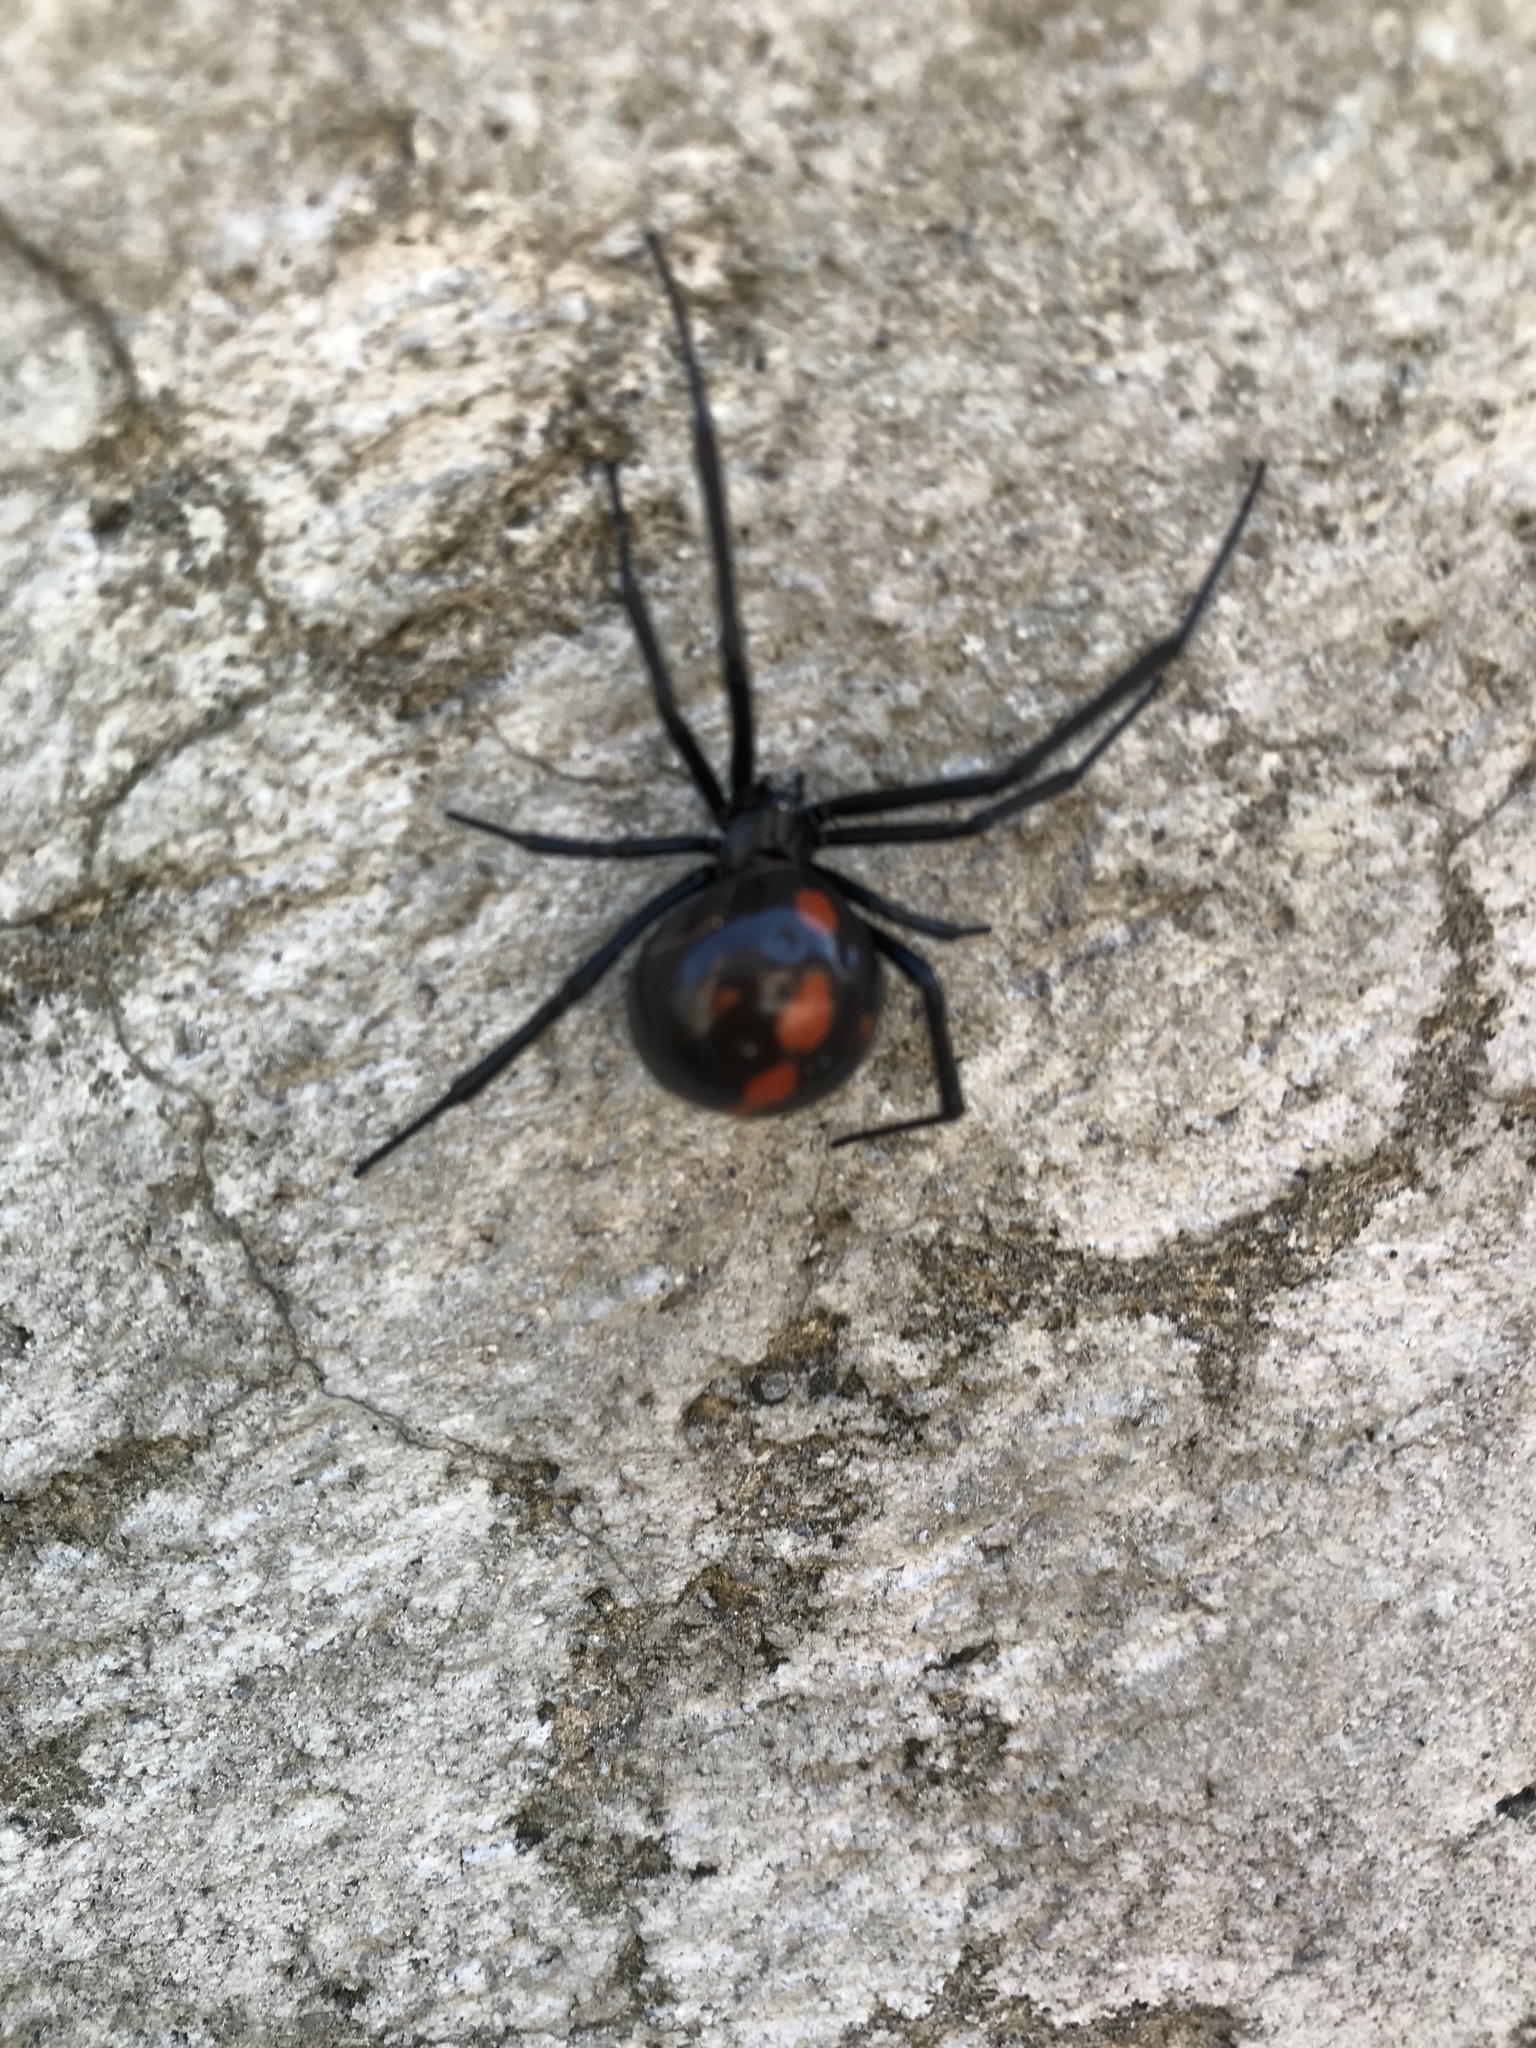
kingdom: Animalia
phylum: Arthropoda
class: Arachnida
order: Araneae
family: Theridiidae
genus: Latrodectus
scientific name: Latrodectus mactans
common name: Cobweb spiders
